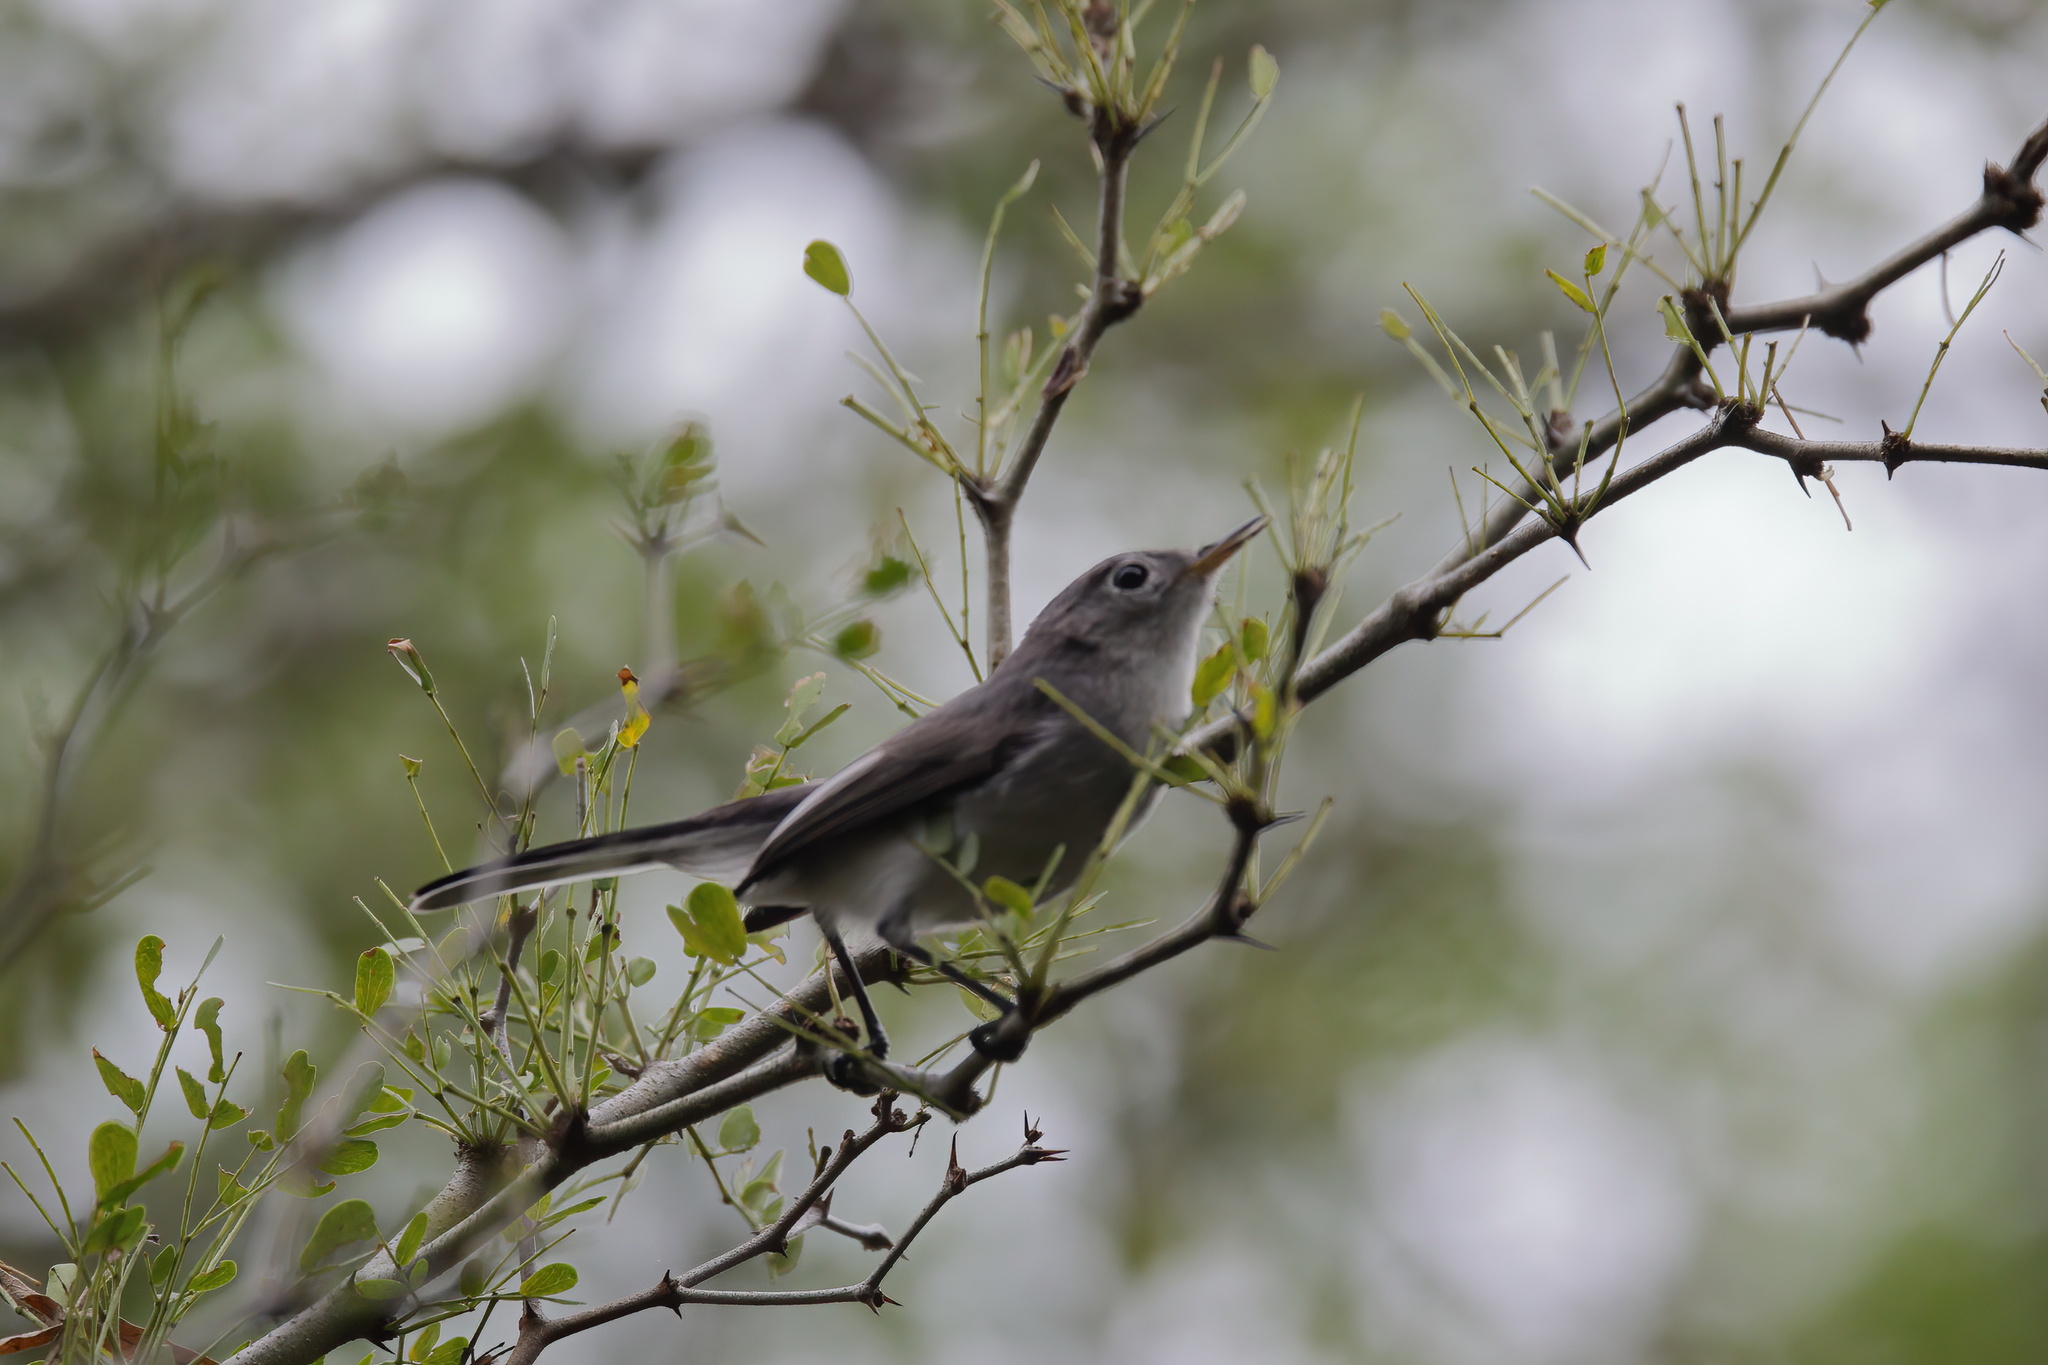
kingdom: Animalia
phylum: Chordata
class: Aves
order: Passeriformes
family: Polioptilidae
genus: Polioptila
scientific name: Polioptila caerulea
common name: Blue-gray gnatcatcher
